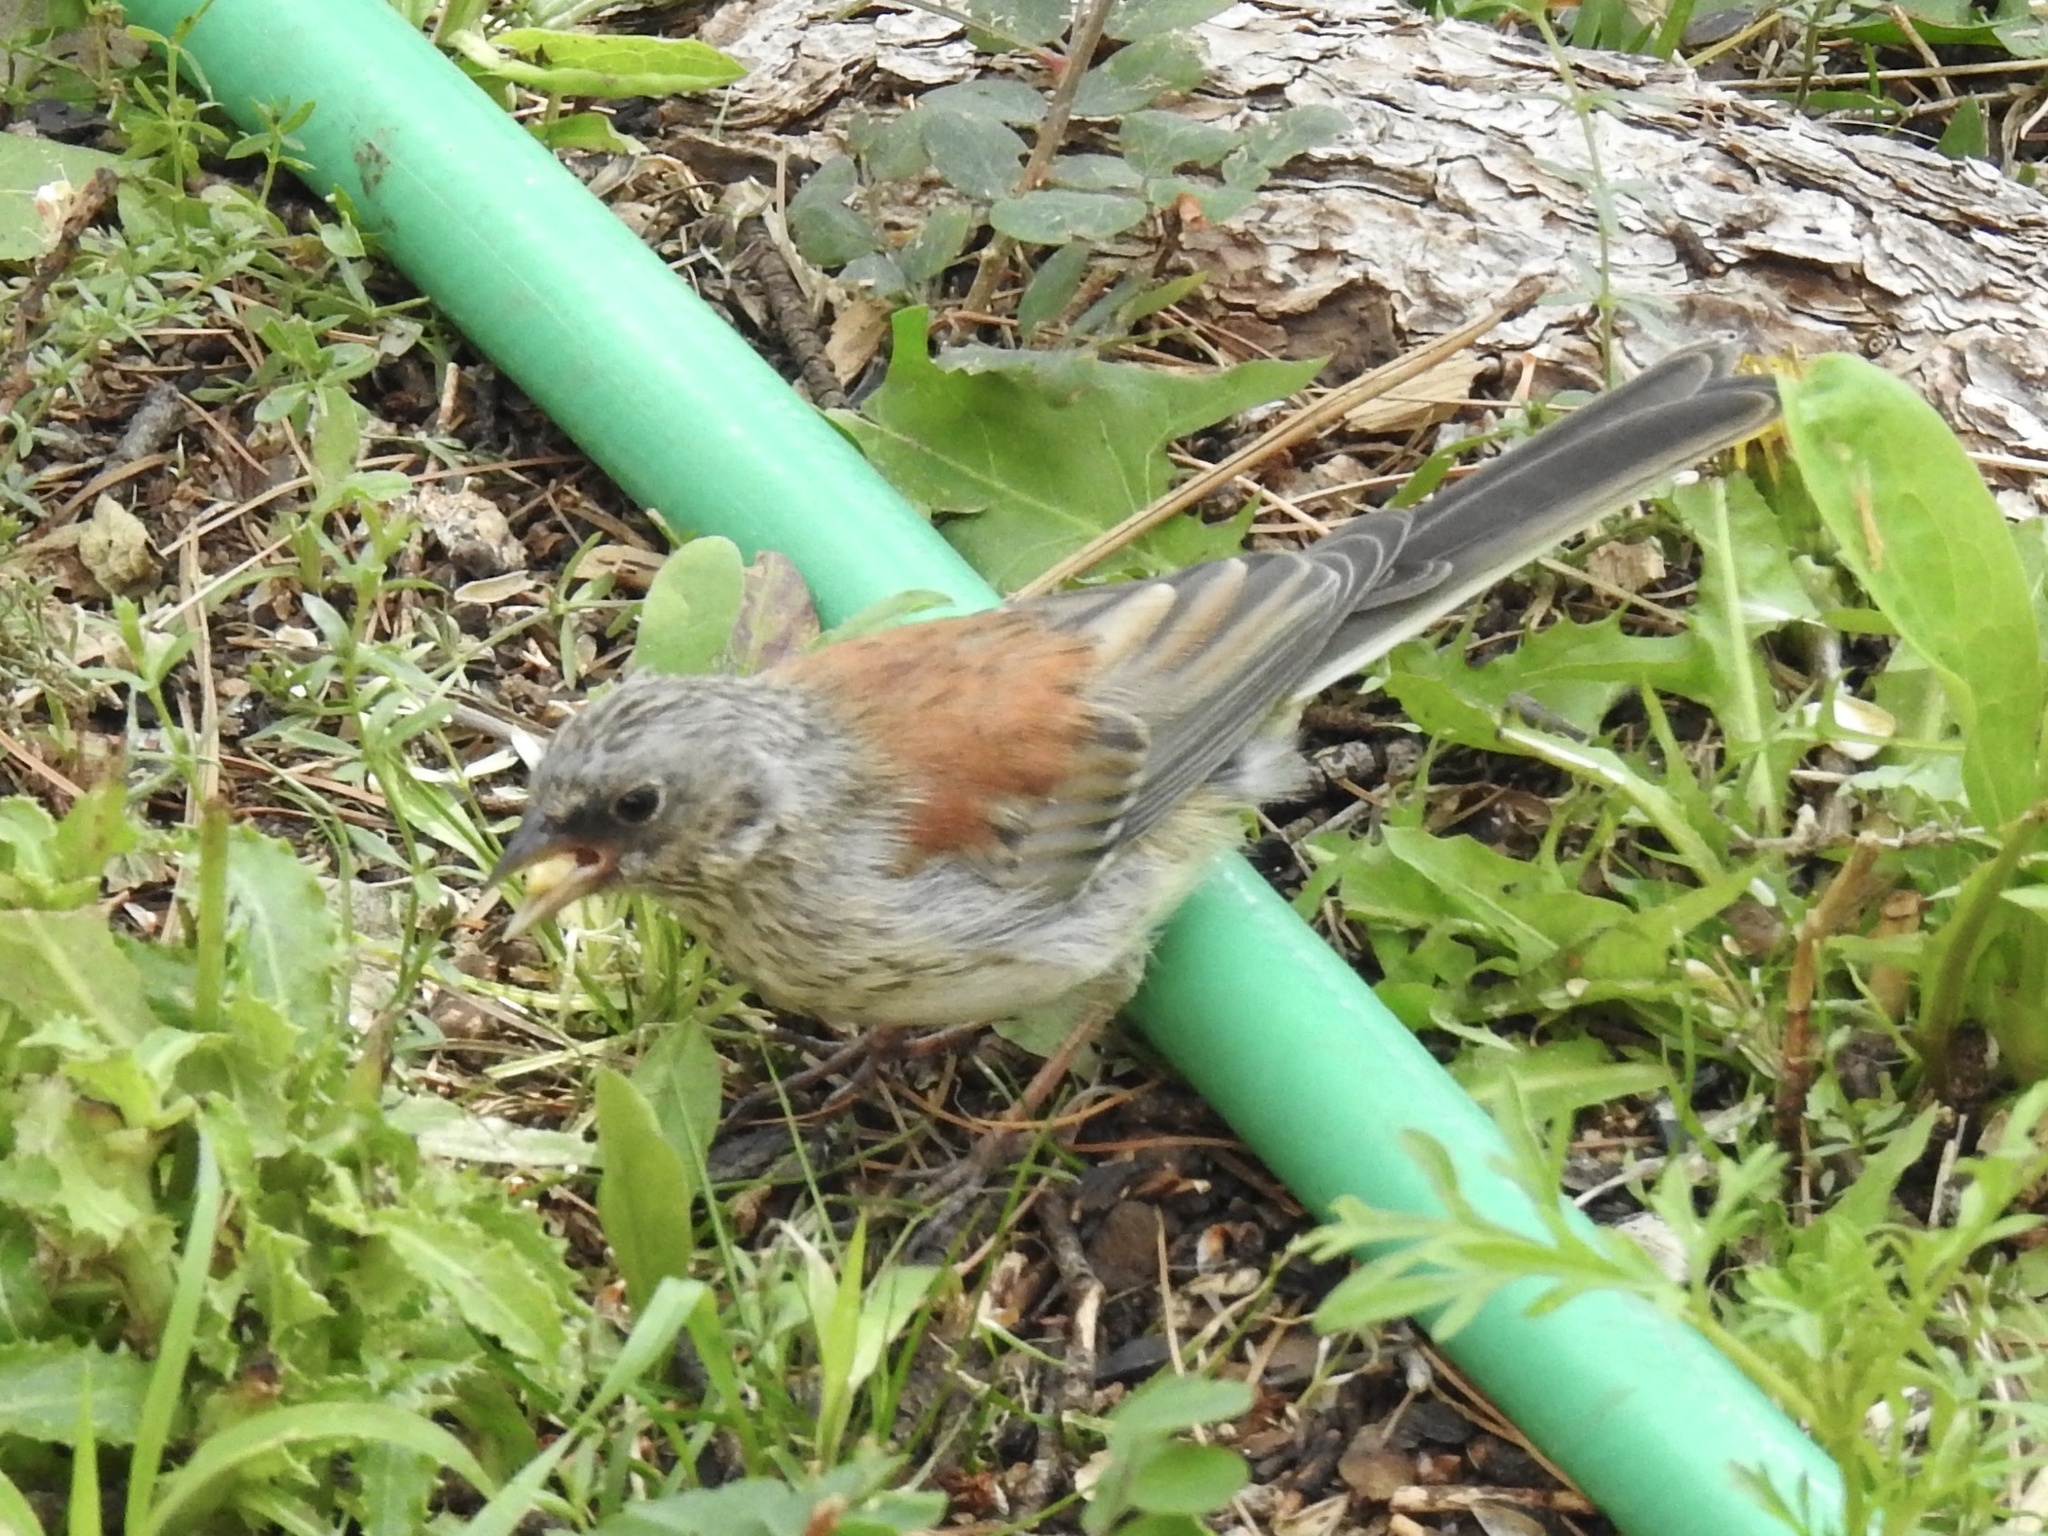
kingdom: Animalia
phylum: Chordata
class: Aves
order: Passeriformes
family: Passerellidae
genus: Junco
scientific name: Junco hyemalis
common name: Dark-eyed junco
